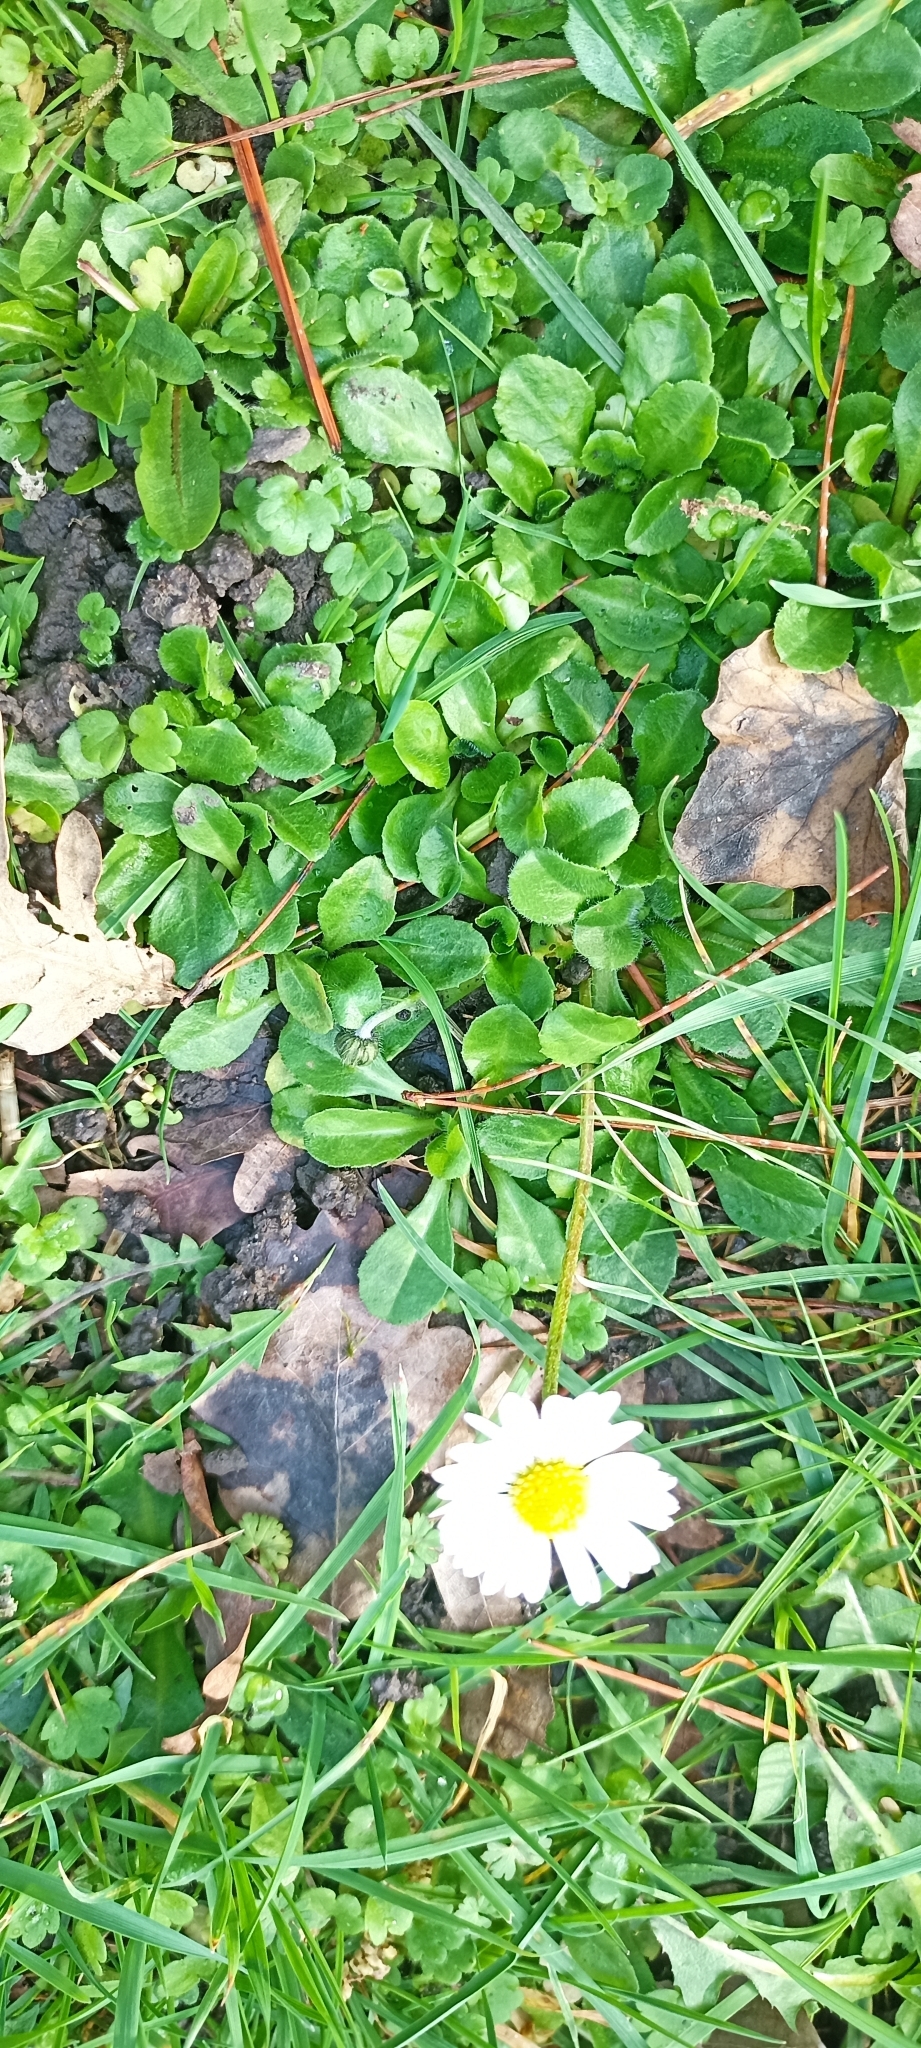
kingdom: Plantae
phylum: Tracheophyta
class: Magnoliopsida
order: Asterales
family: Asteraceae
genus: Bellis
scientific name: Bellis perennis
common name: Lawndaisy
